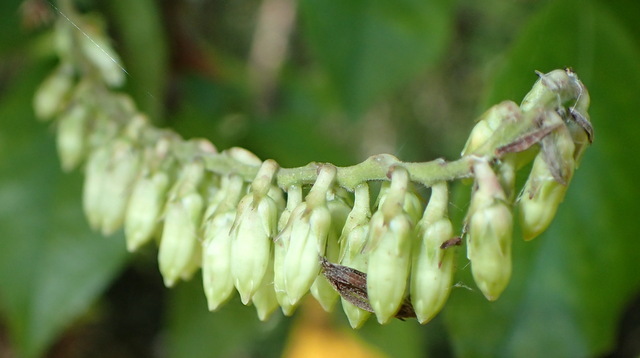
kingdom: Plantae
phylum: Tracheophyta
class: Magnoliopsida
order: Ericales
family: Ericaceae
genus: Eubotrys
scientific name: Eubotrys racemosa
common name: Fetterbush
